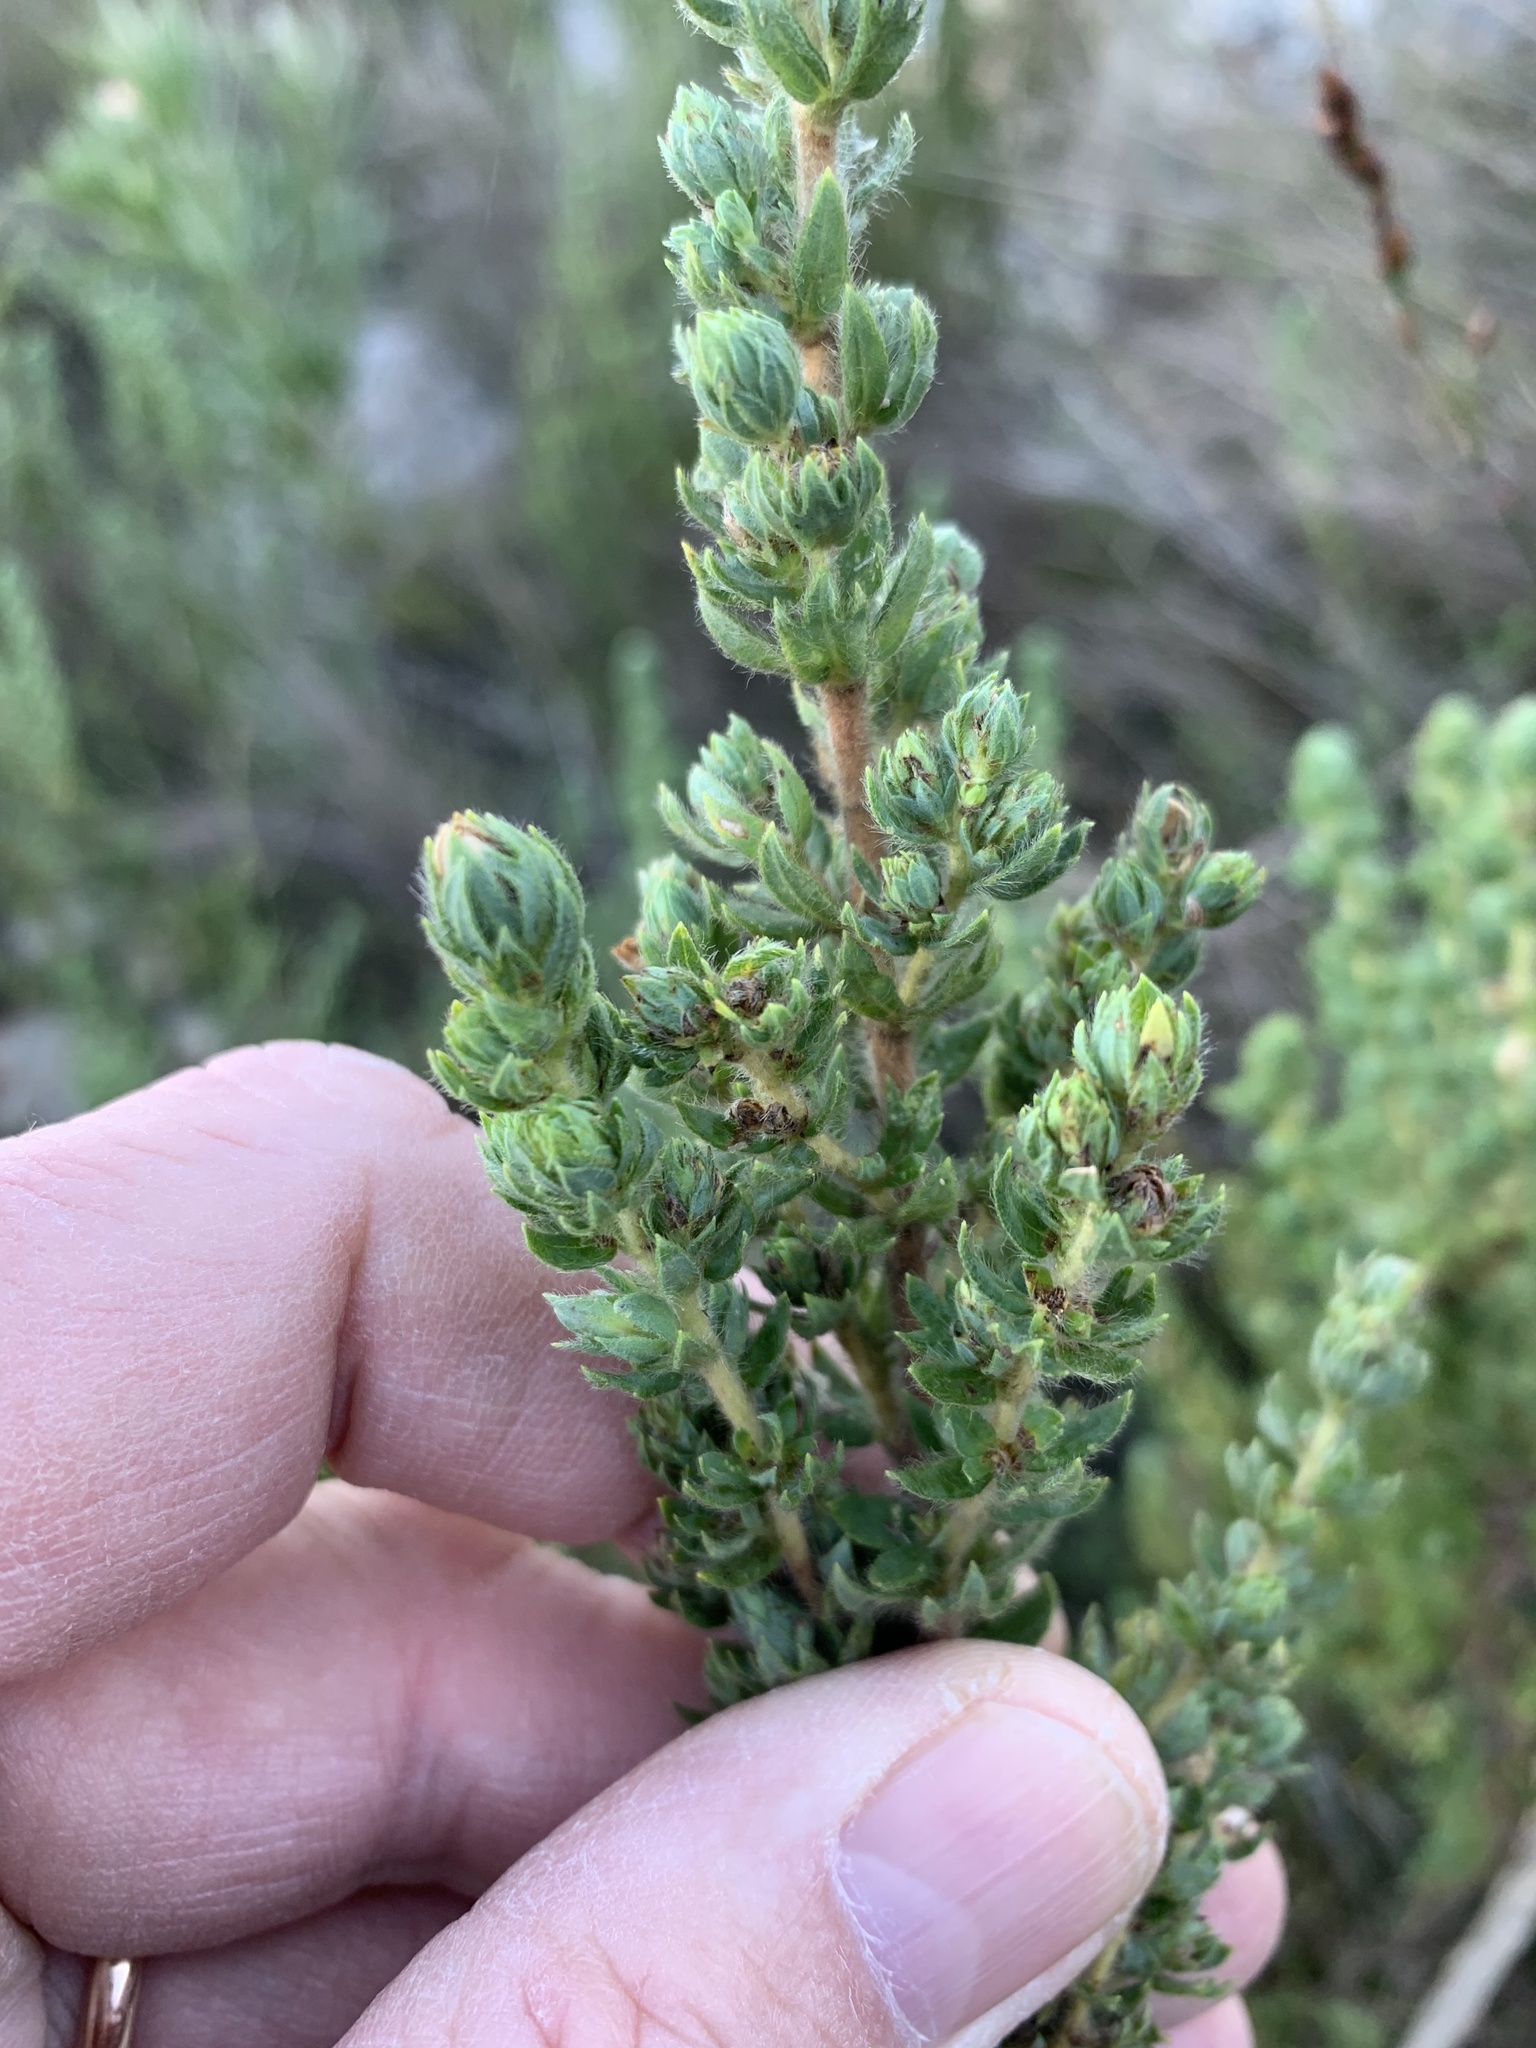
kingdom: Plantae
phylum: Tracheophyta
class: Magnoliopsida
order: Rosales
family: Rosaceae
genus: Cliffortia
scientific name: Cliffortia polygonifolia
